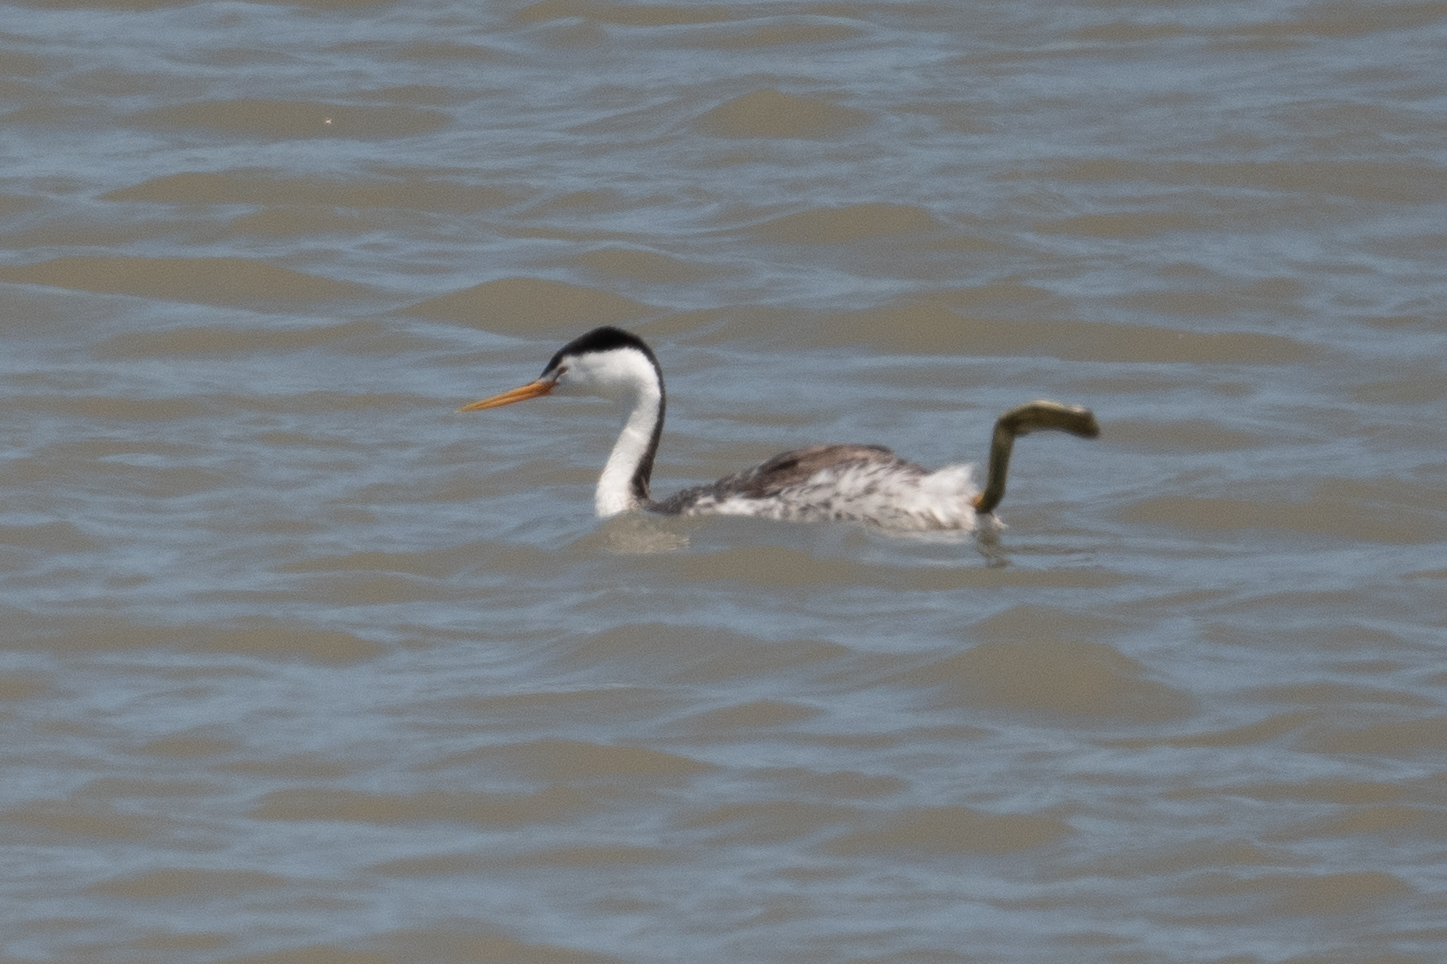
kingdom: Animalia
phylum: Chordata
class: Aves
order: Podicipediformes
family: Podicipedidae
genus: Aechmophorus
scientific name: Aechmophorus clarkii
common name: Clark's grebe
